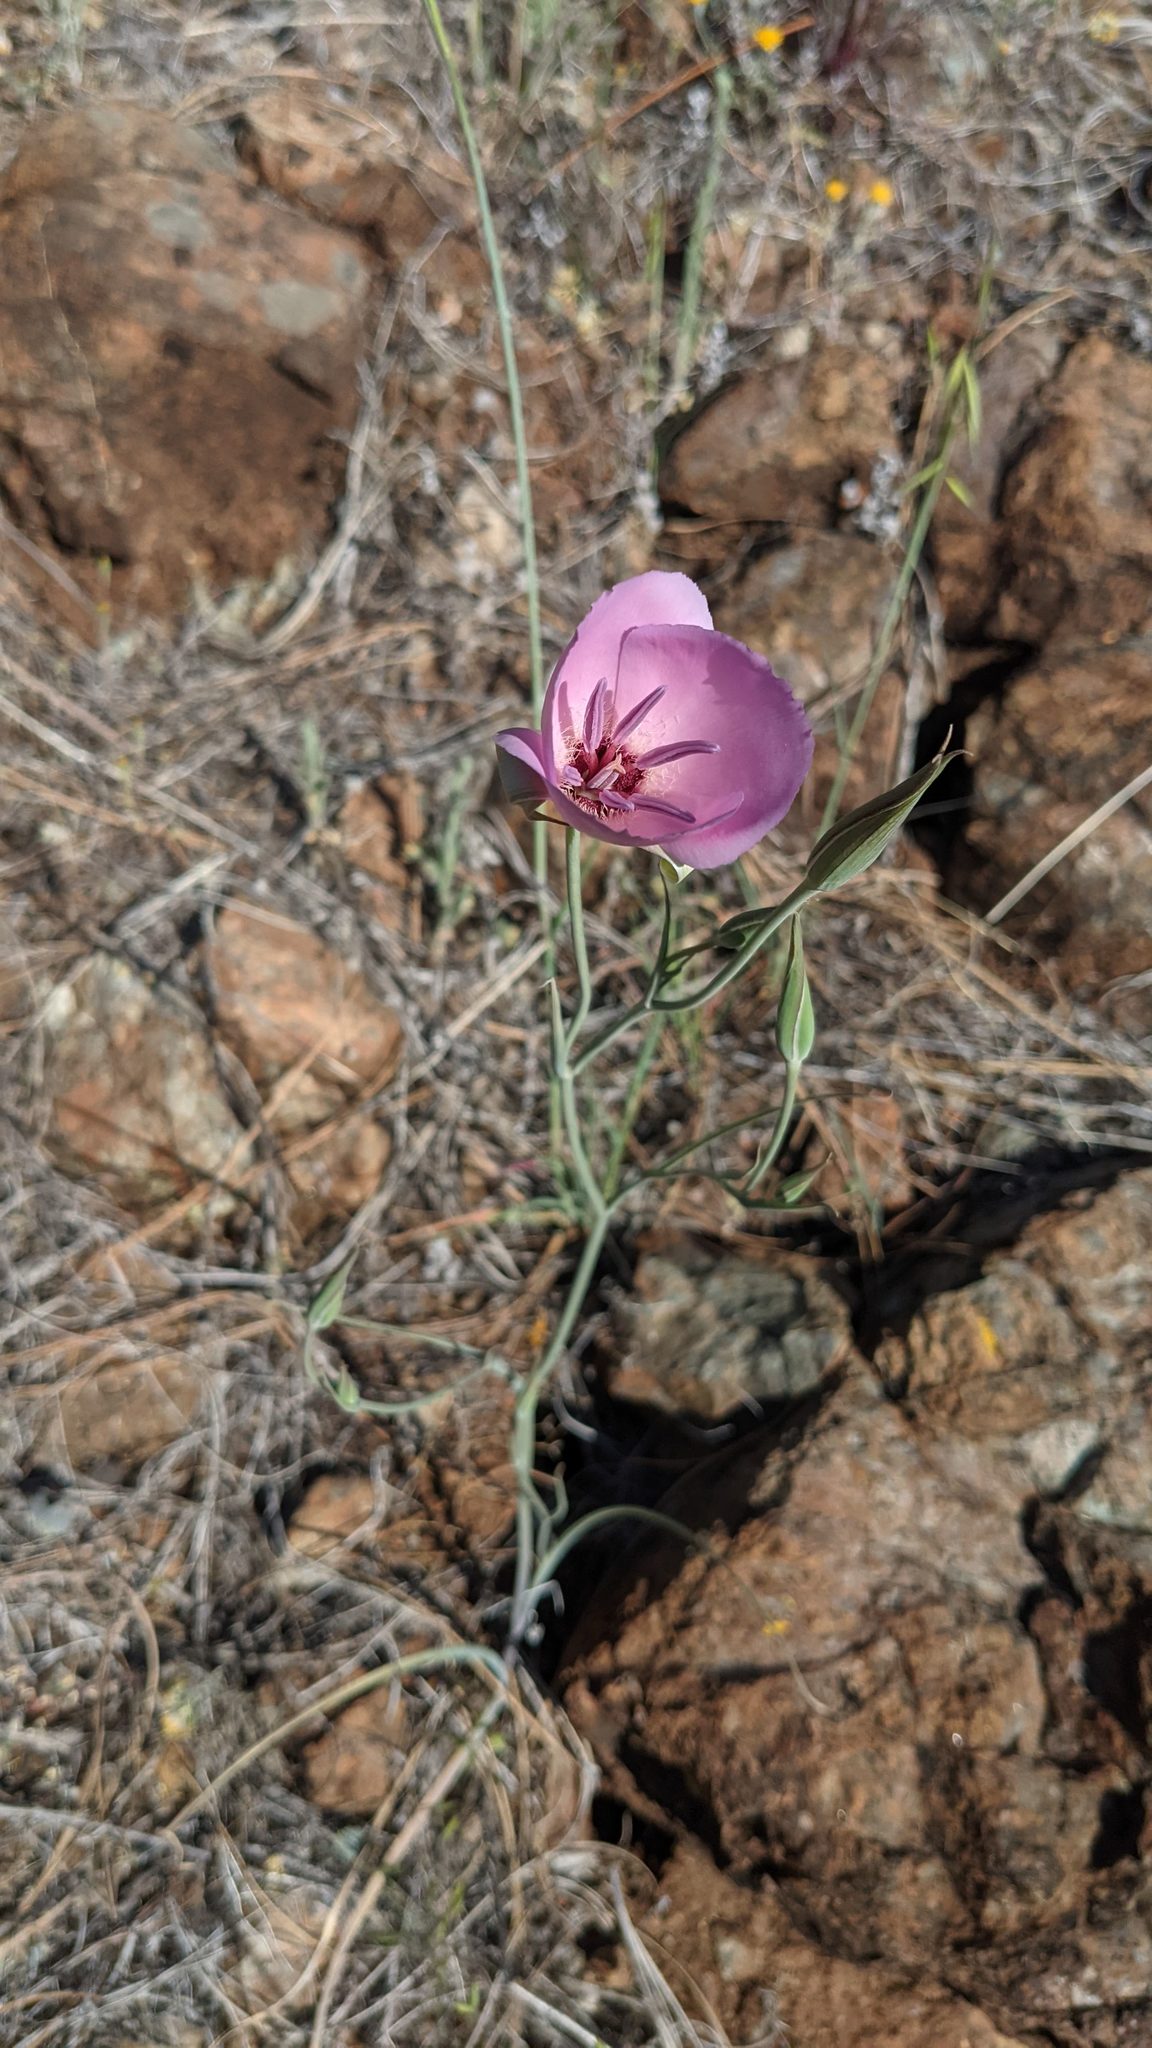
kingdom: Plantae
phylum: Tracheophyta
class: Liliopsida
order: Liliales
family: Liliaceae
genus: Calochortus
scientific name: Calochortus splendens
